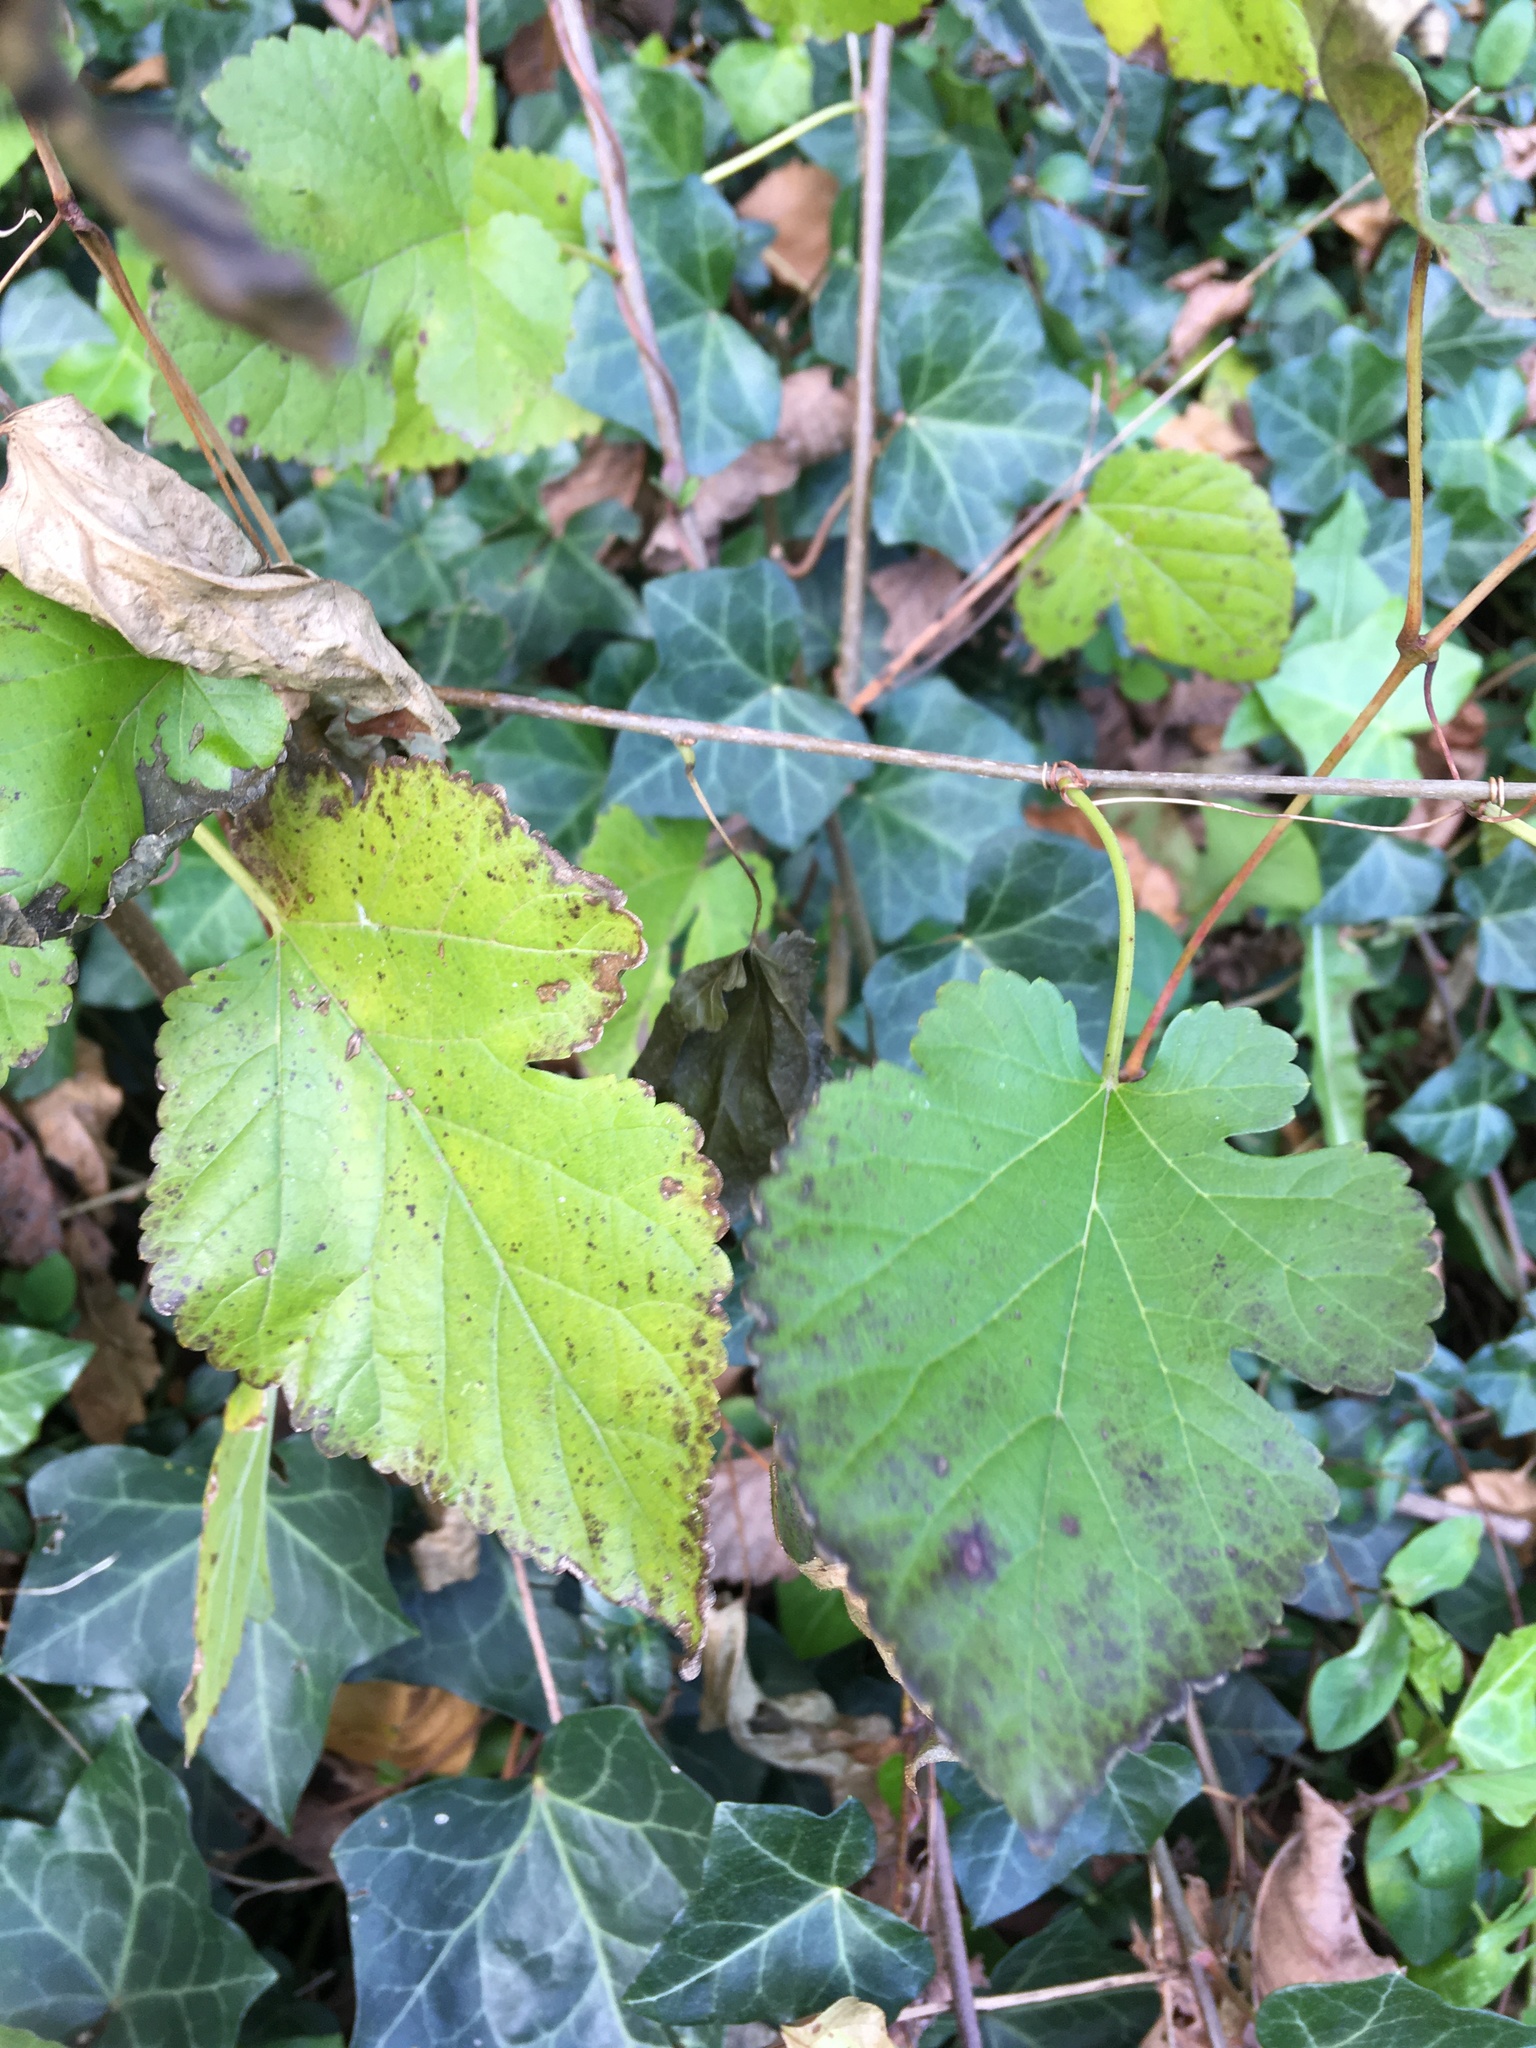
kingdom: Plantae
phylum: Tracheophyta
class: Magnoliopsida
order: Rosales
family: Moraceae
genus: Morus
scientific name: Morus alba
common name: White mulberry
